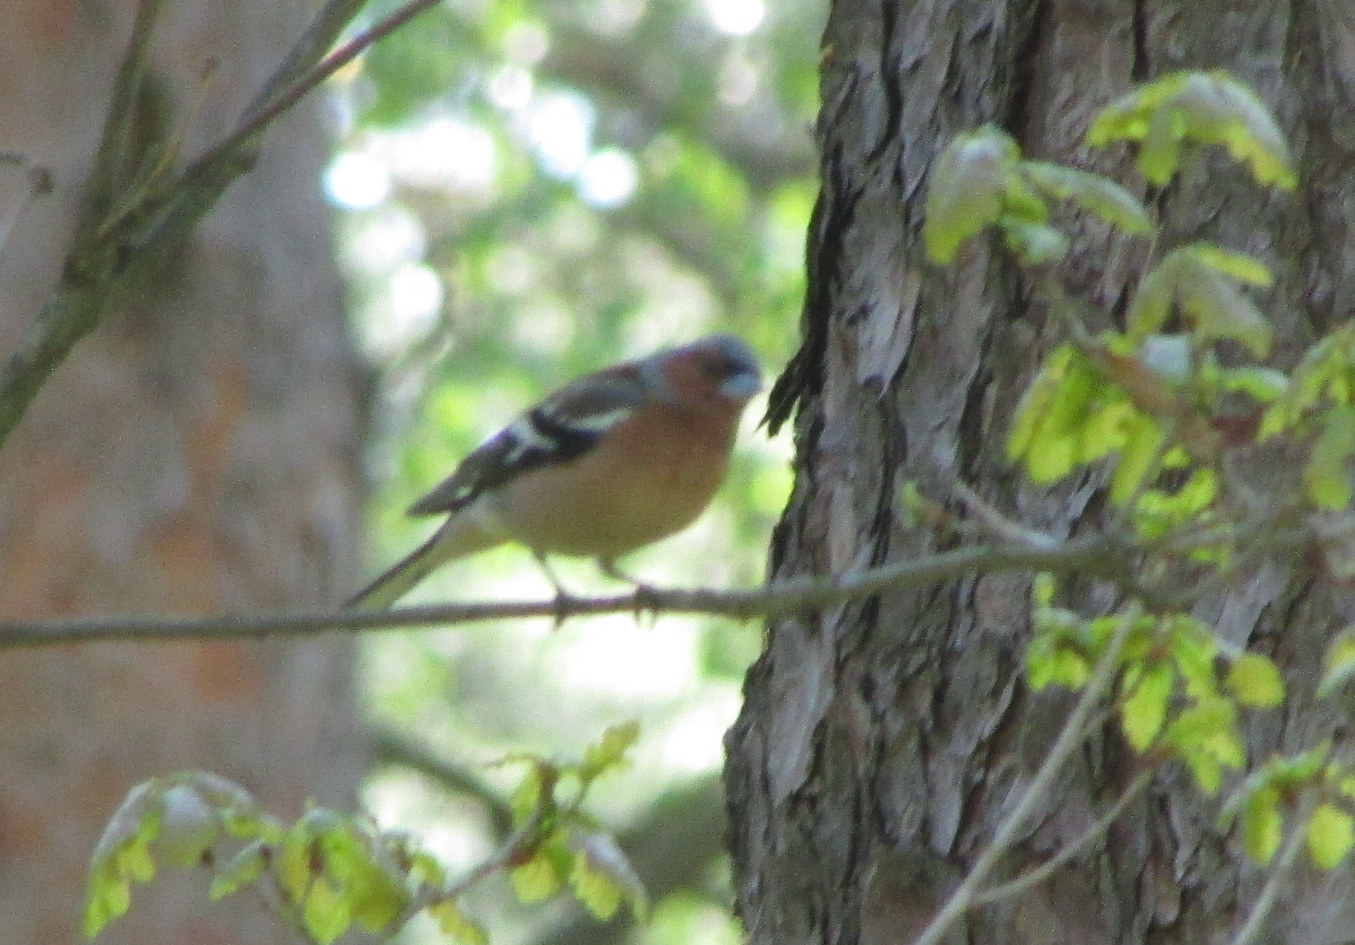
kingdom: Animalia
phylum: Chordata
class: Aves
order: Passeriformes
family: Fringillidae
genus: Fringilla
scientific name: Fringilla coelebs
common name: Common chaffinch
